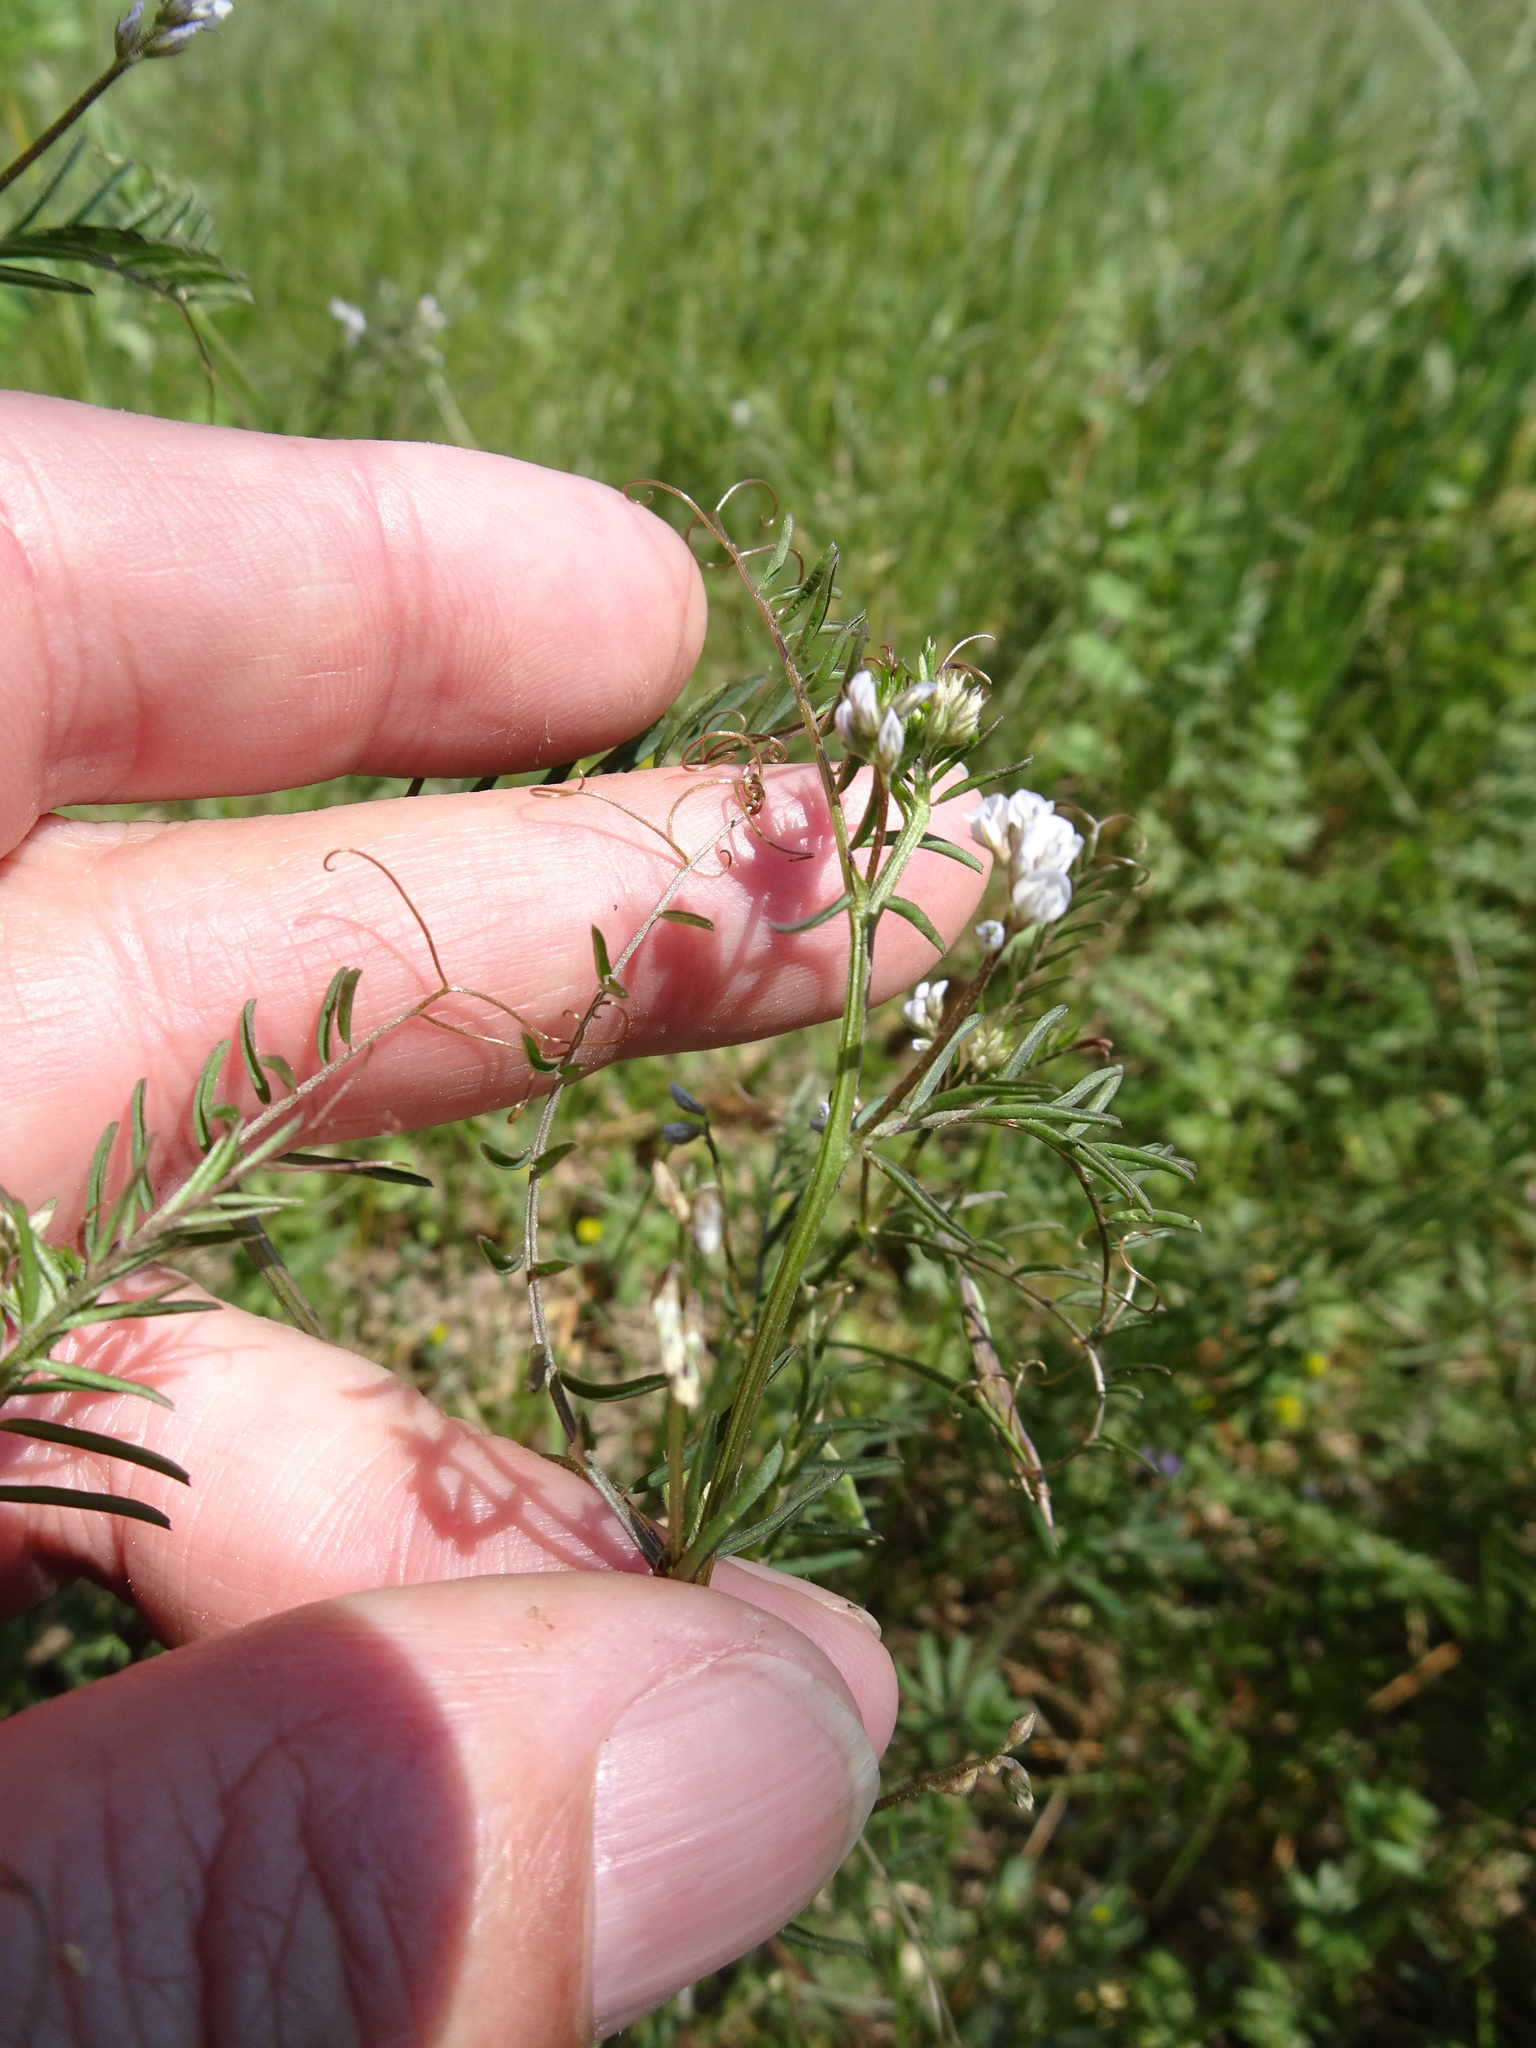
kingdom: Plantae
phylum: Tracheophyta
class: Magnoliopsida
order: Fabales
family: Fabaceae
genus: Vicia
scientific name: Vicia hirsuta
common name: Tiny vetch
